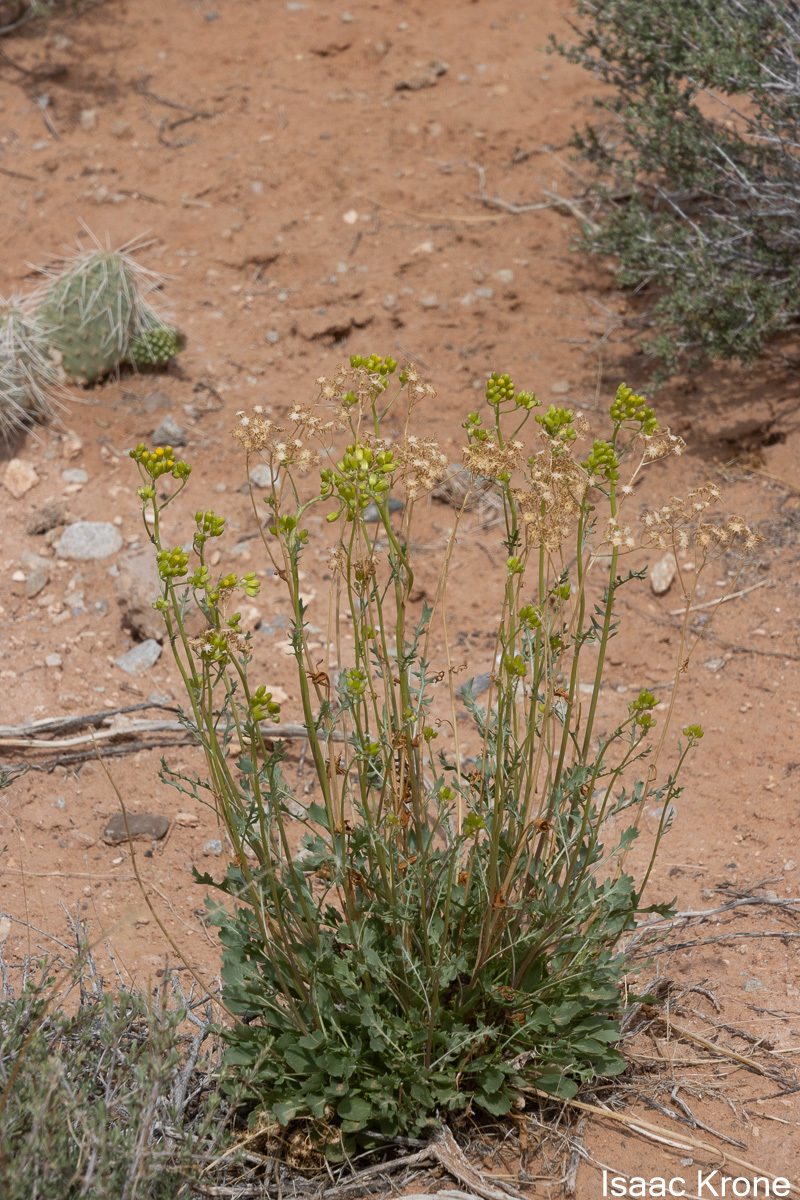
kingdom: Plantae
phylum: Tracheophyta
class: Magnoliopsida
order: Asterales
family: Asteraceae
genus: Packera
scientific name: Packera multilobata
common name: Lobe-leaf groundsel
